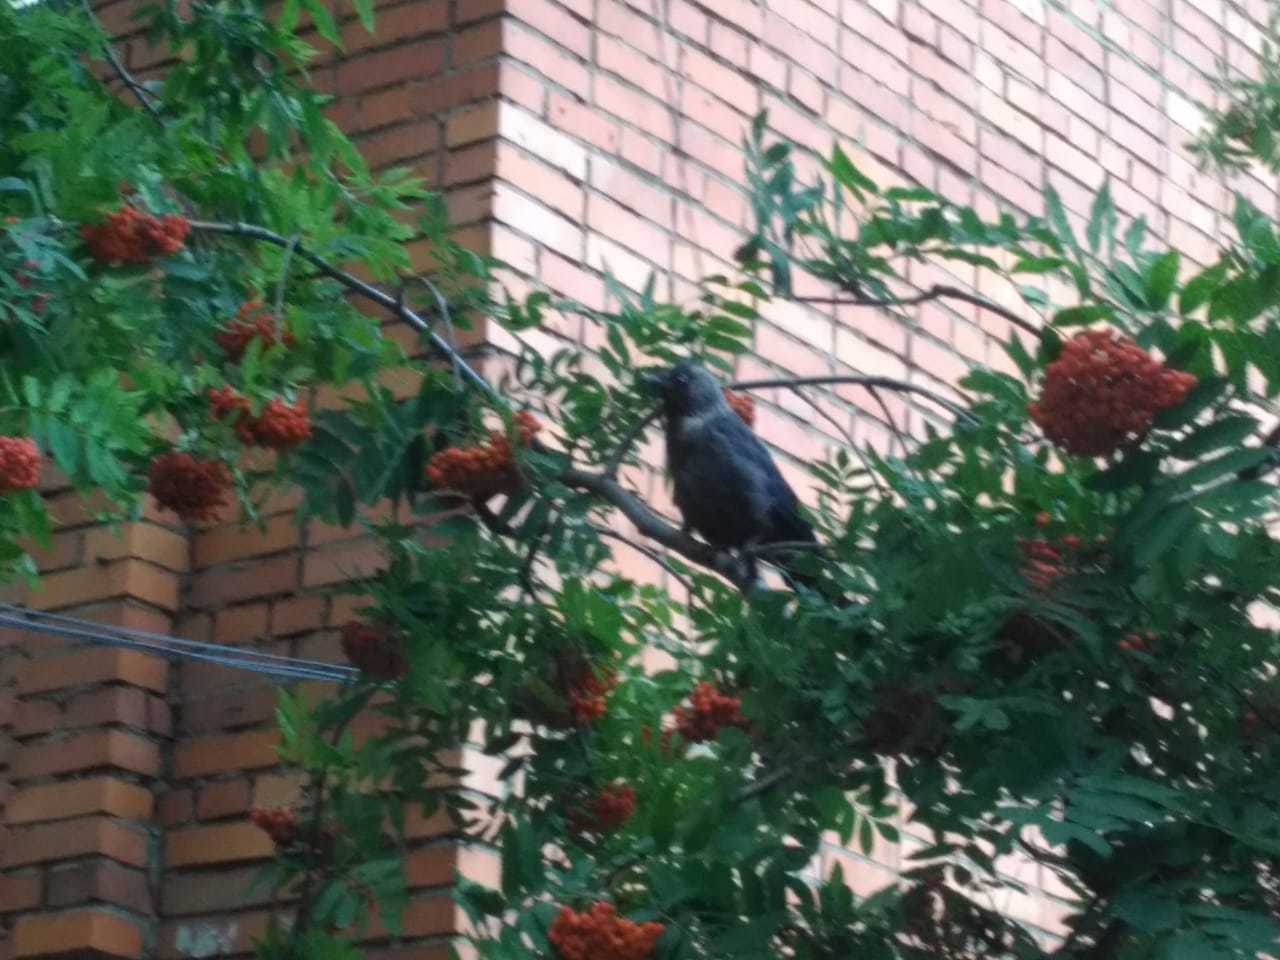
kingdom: Animalia
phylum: Chordata
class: Aves
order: Passeriformes
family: Corvidae
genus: Coloeus
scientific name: Coloeus monedula
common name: Western jackdaw
